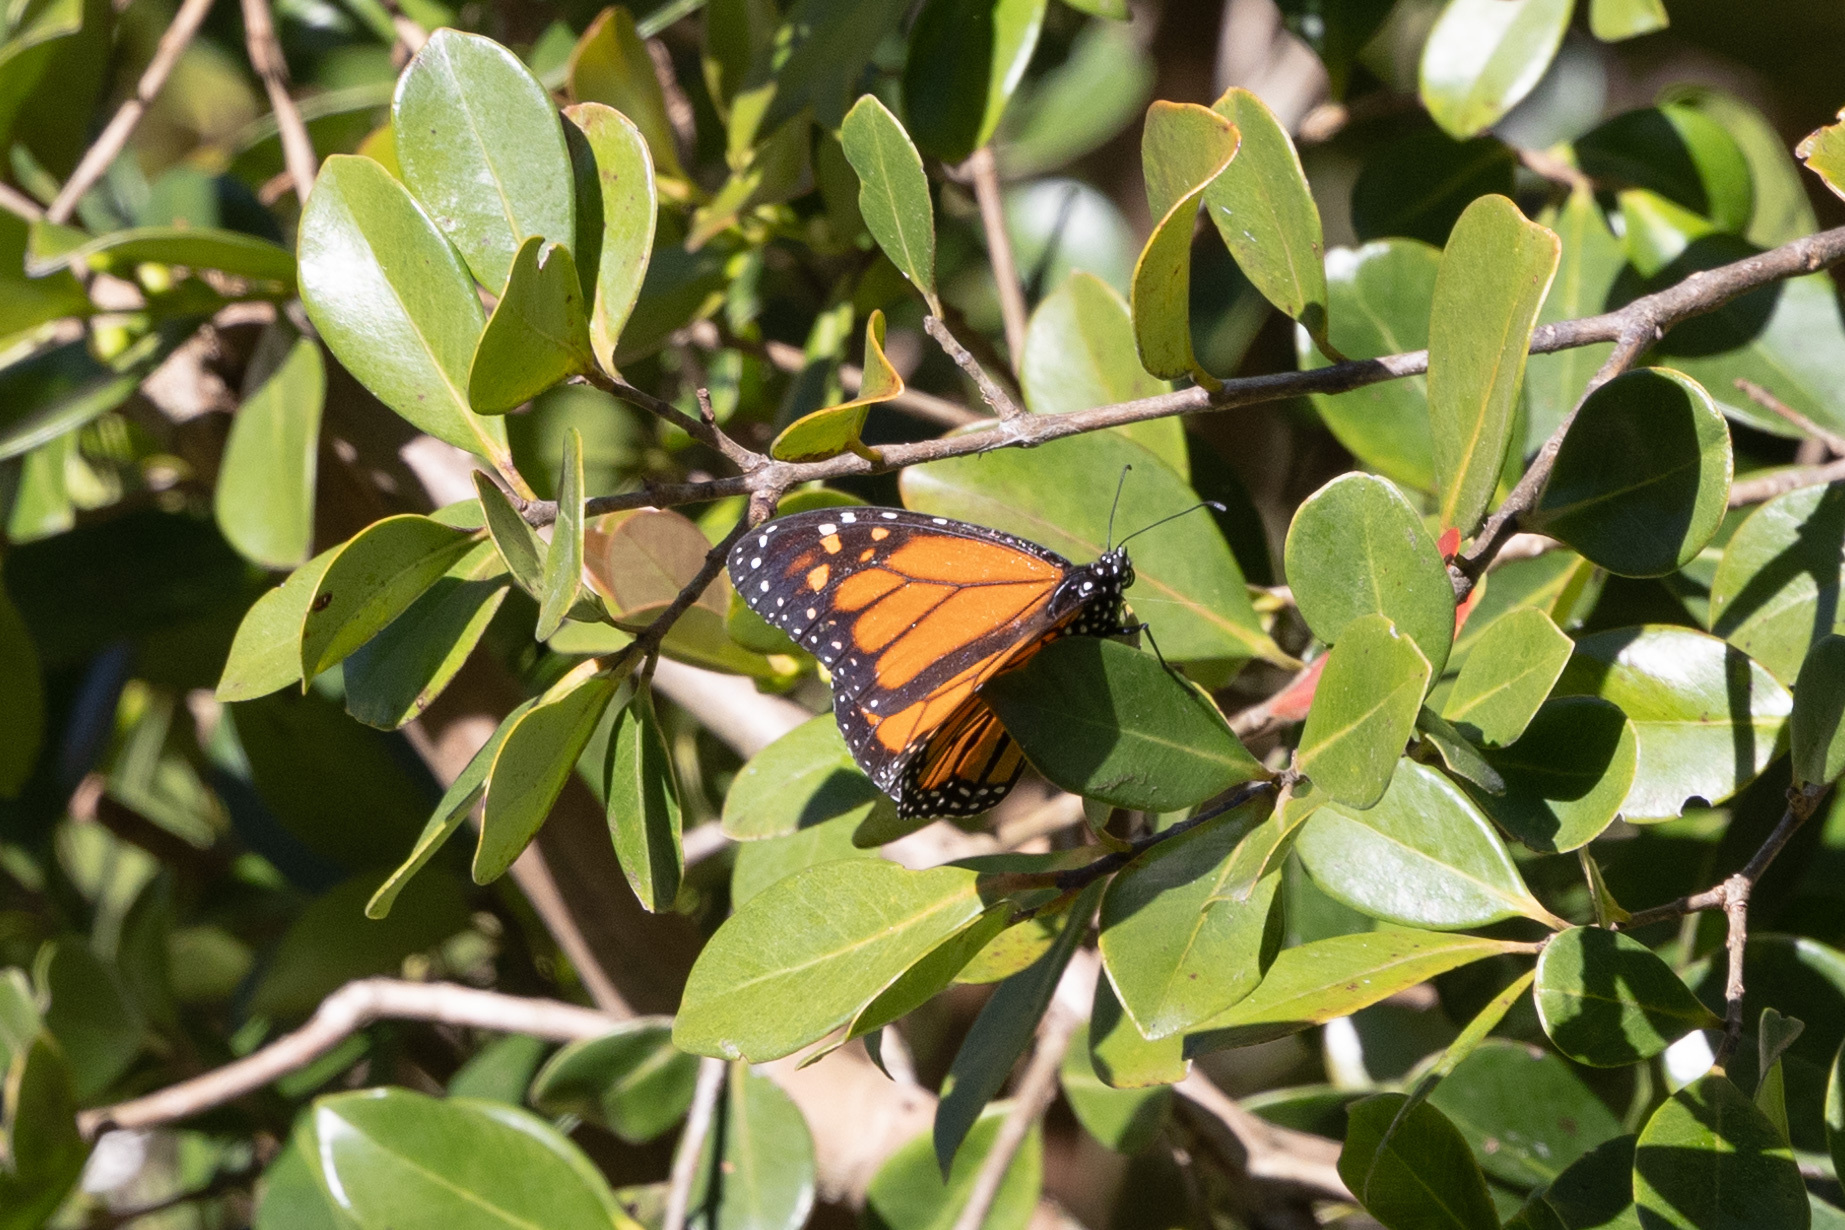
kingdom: Animalia
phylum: Arthropoda
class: Insecta
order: Lepidoptera
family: Nymphalidae
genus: Danaus
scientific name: Danaus plexippus
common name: Monarch
